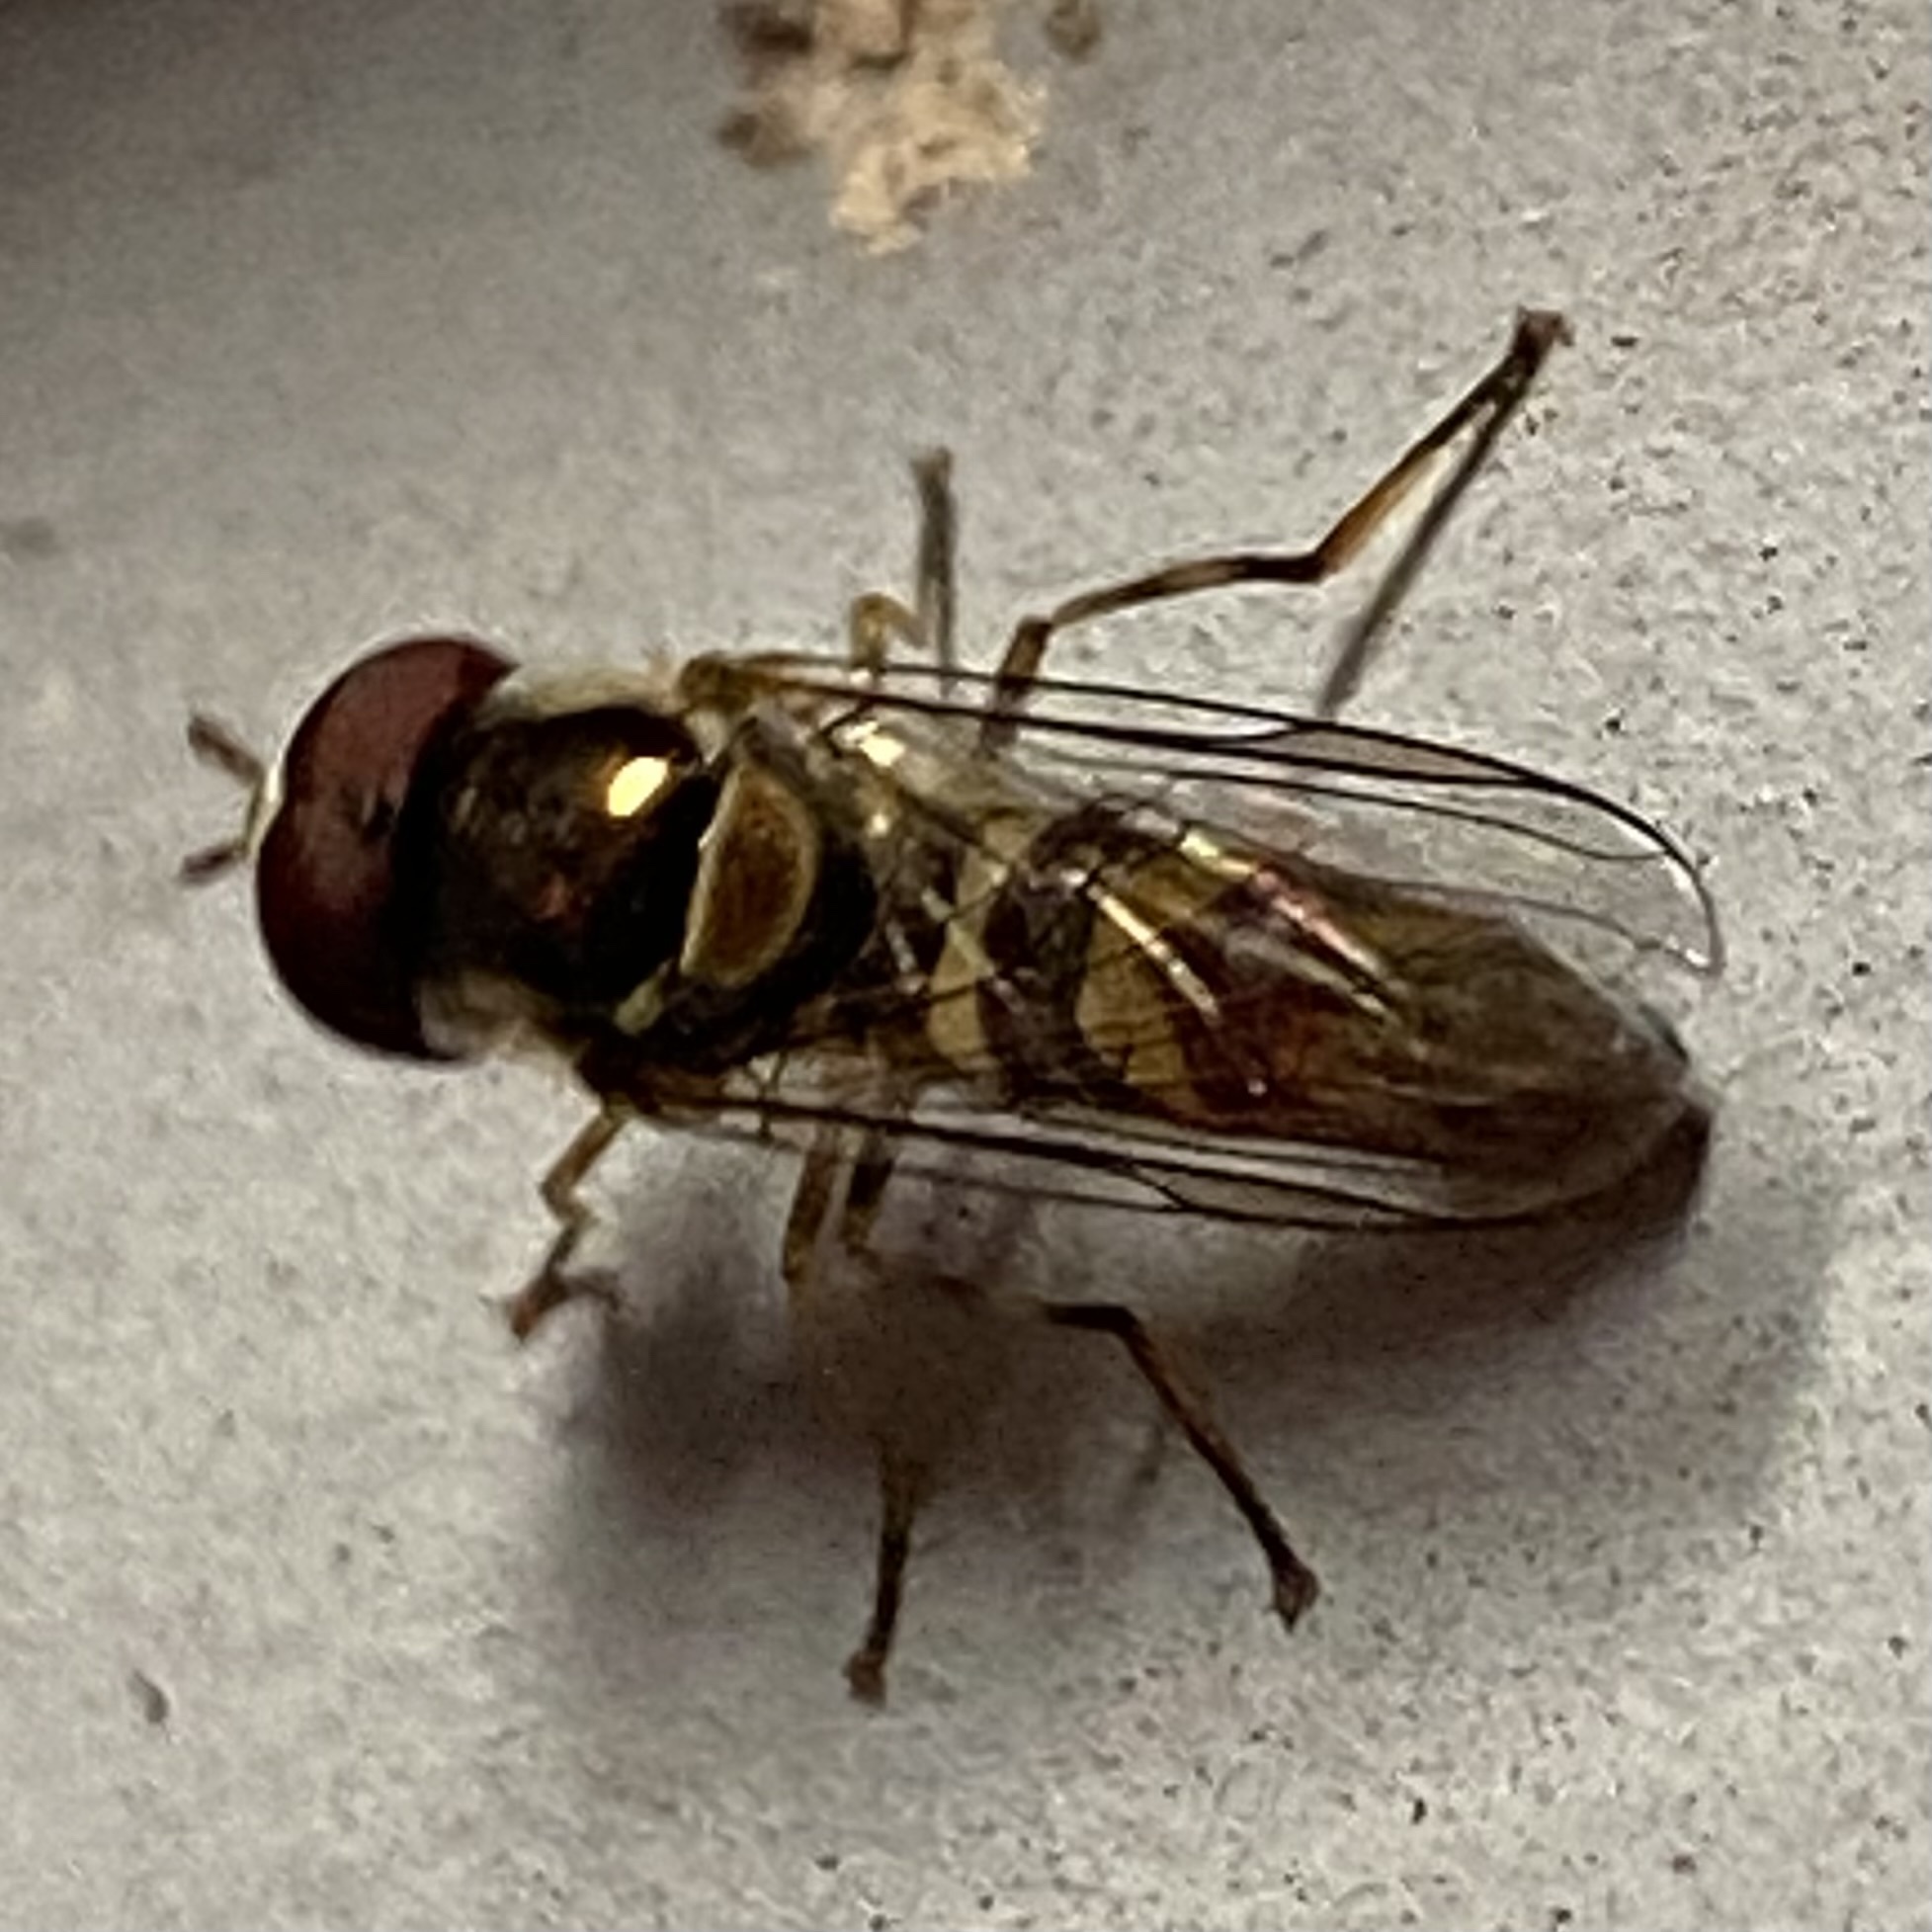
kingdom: Animalia
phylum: Arthropoda
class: Insecta
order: Diptera
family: Syrphidae
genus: Allograpta
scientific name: Allograpta obliqua
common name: Common oblique syrphid
